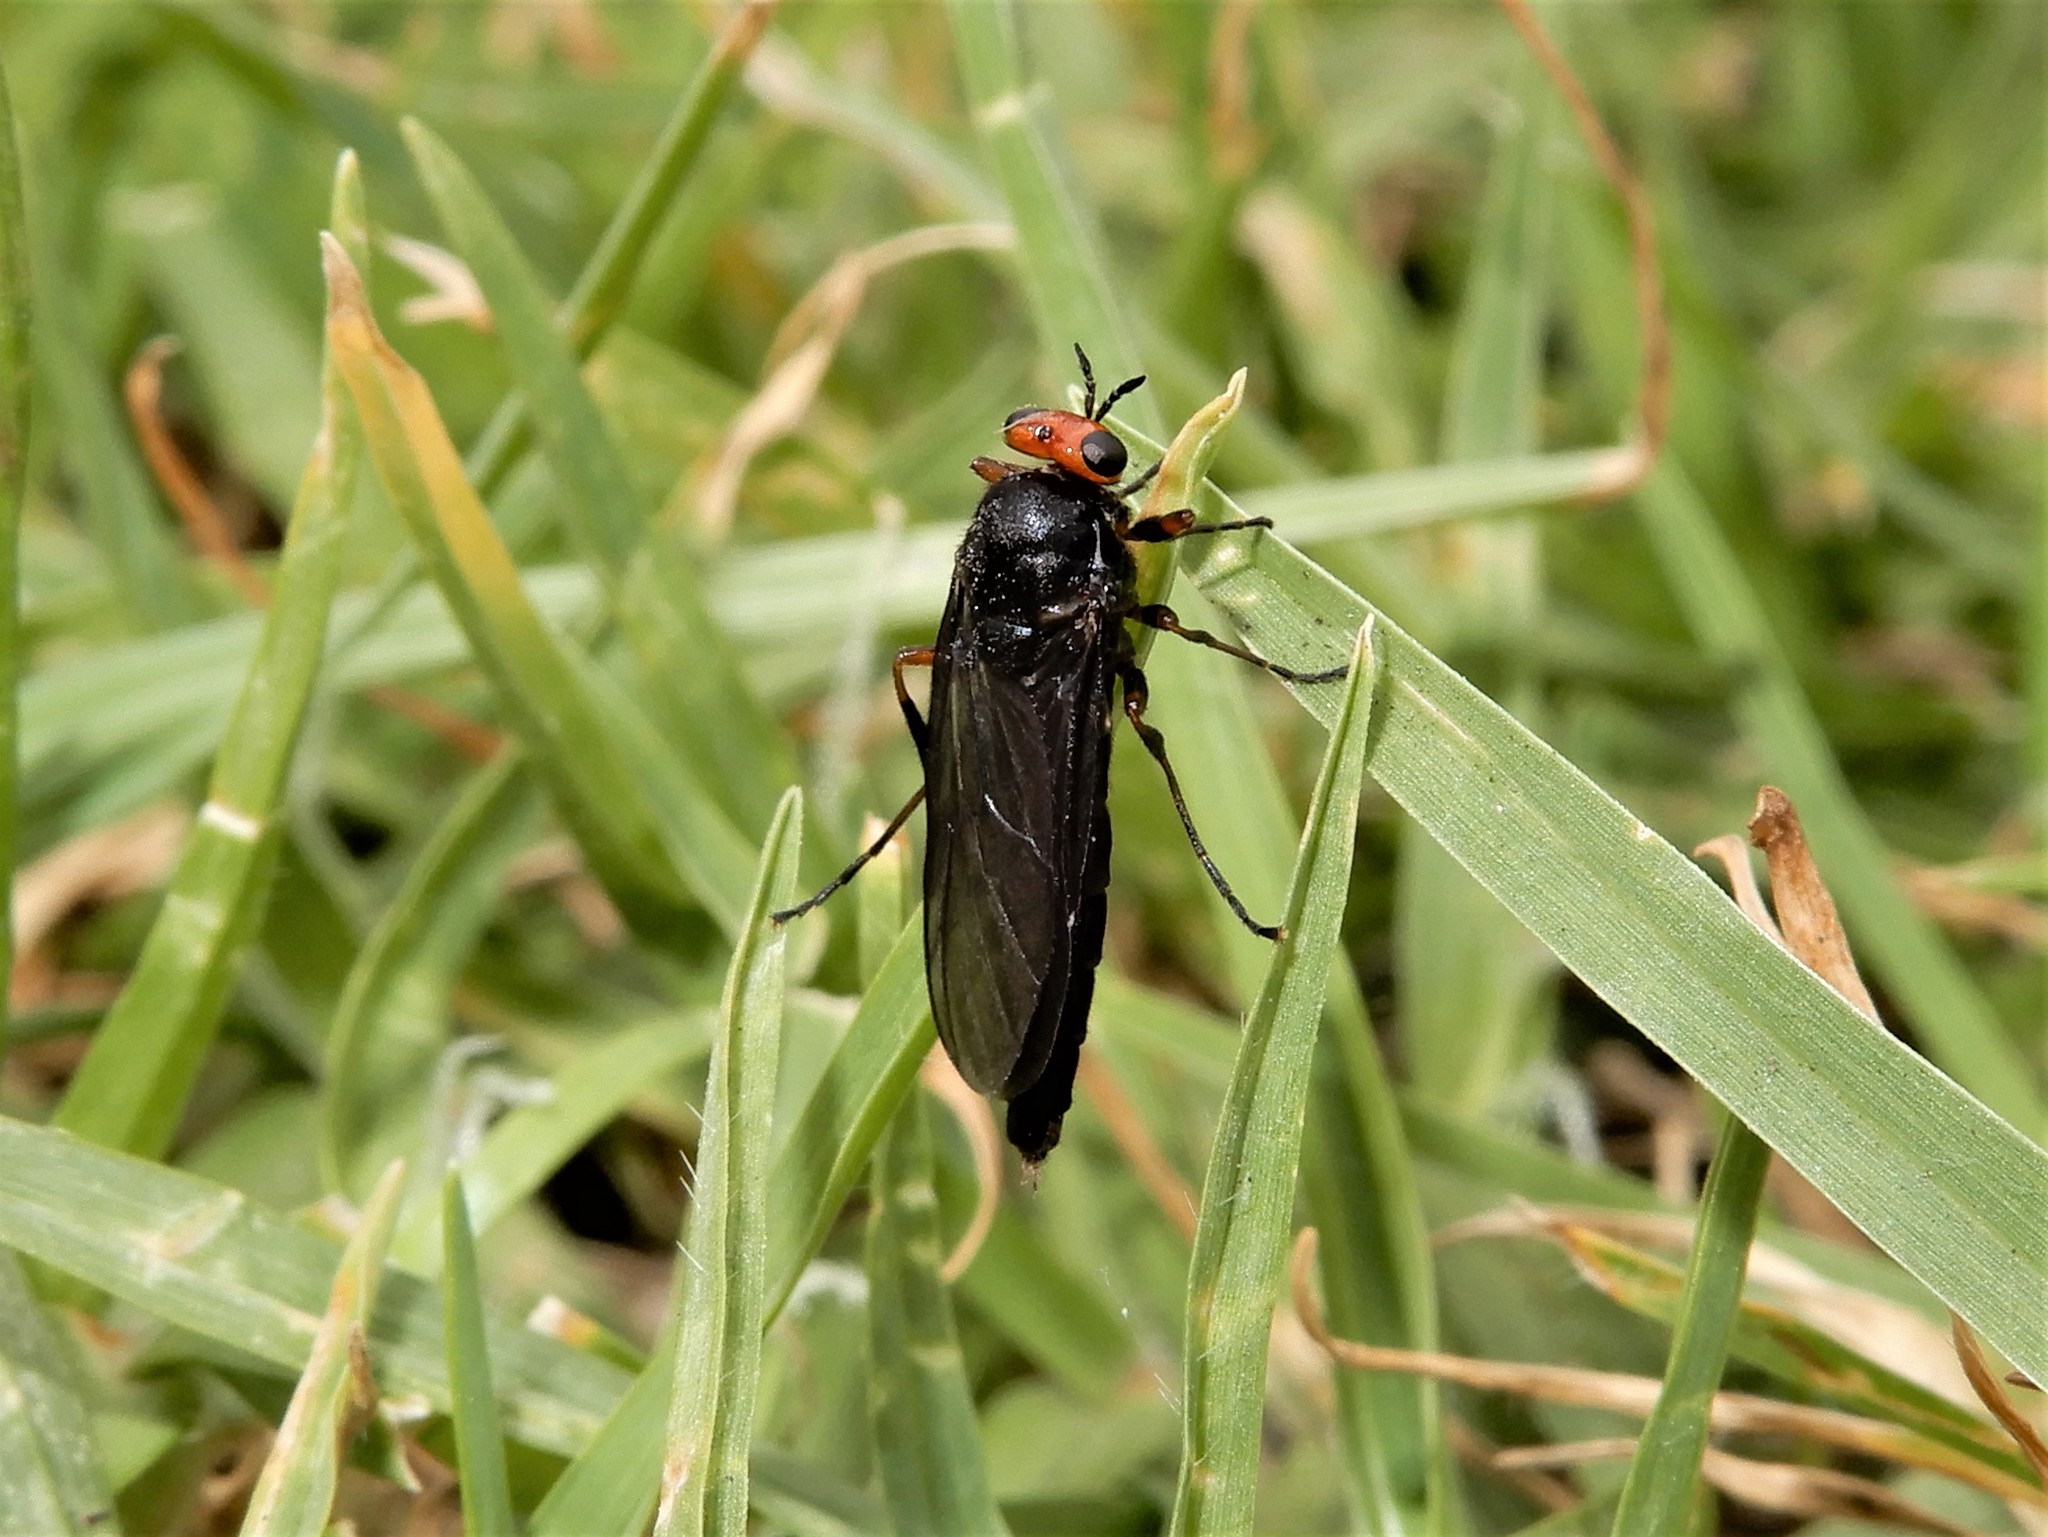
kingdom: Animalia
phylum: Arthropoda
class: Insecta
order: Diptera
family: Stratiomyidae
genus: Inopus
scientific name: Inopus rubriceps
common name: Soldier fly
